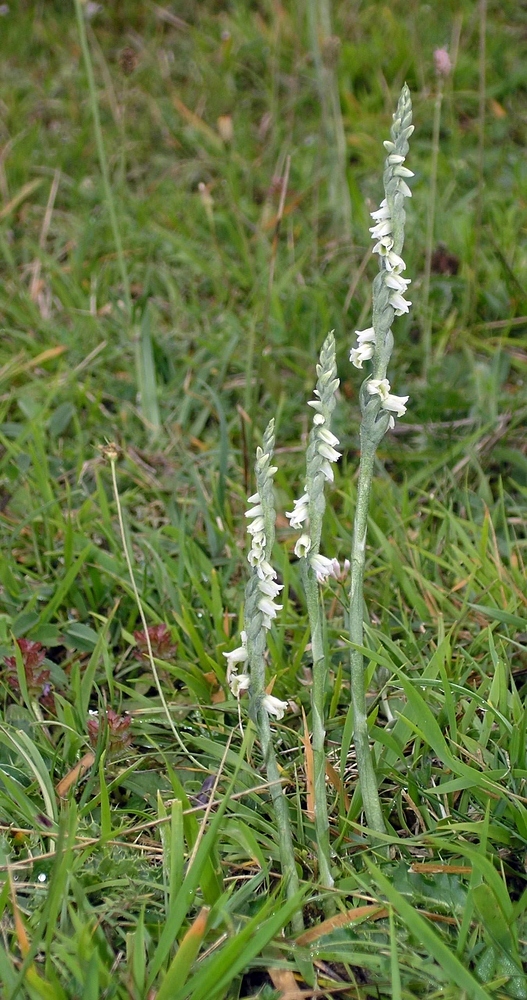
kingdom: Plantae
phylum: Tracheophyta
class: Liliopsida
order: Asparagales
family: Orchidaceae
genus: Spiranthes
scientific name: Spiranthes spiralis
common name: Autumn lady's-tresses
